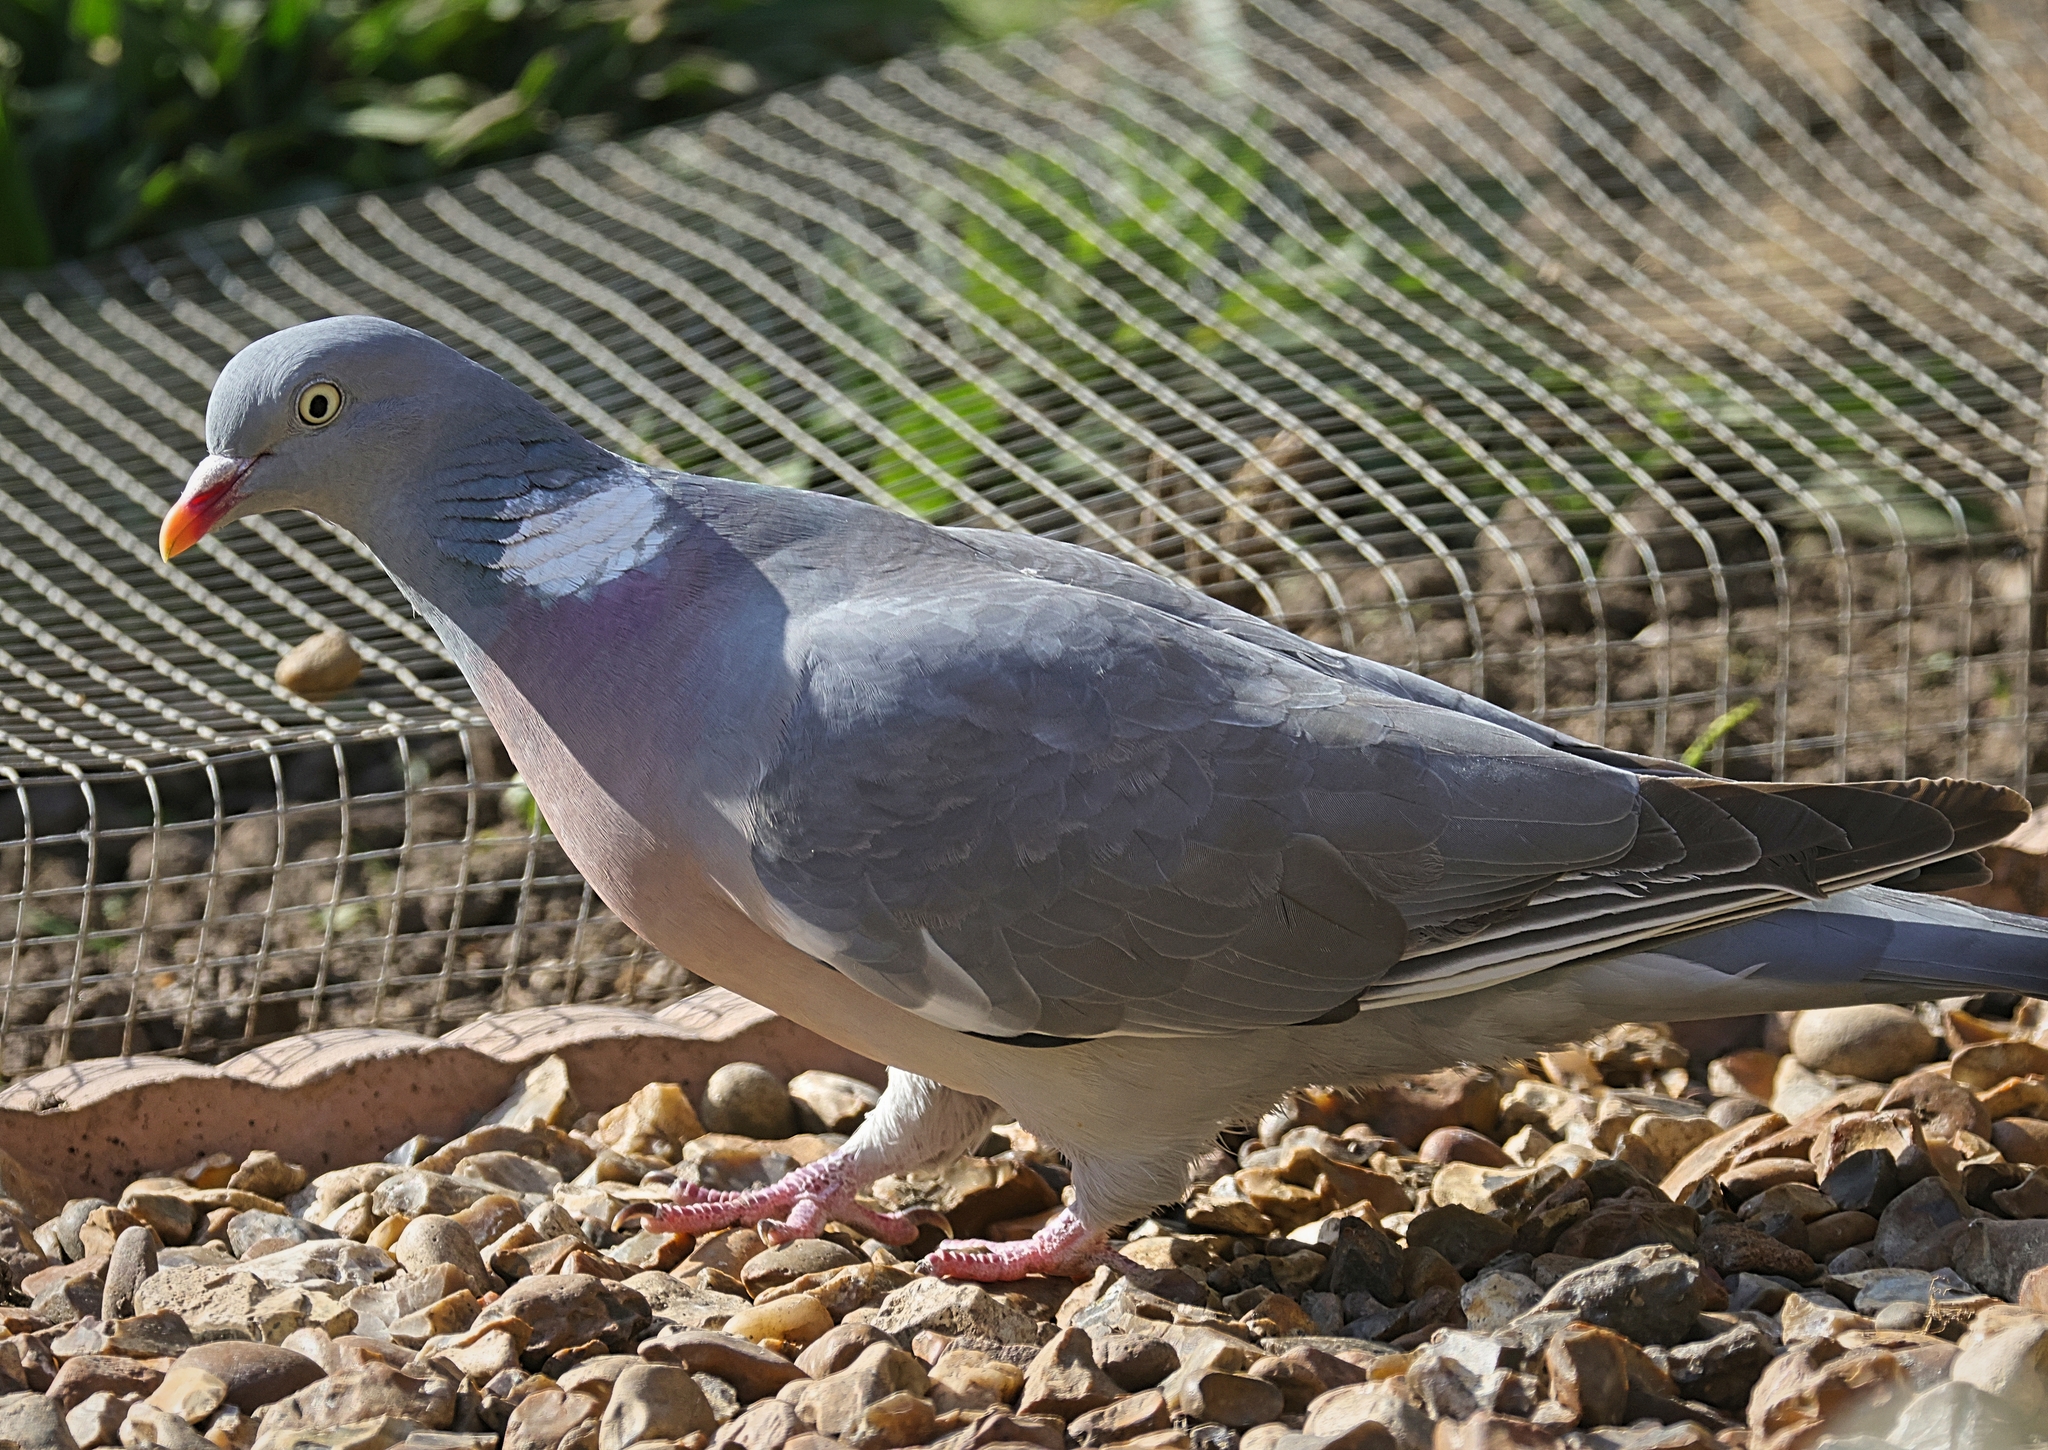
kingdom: Animalia
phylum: Chordata
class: Aves
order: Columbiformes
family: Columbidae
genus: Columba
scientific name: Columba palumbus
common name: Common wood pigeon
